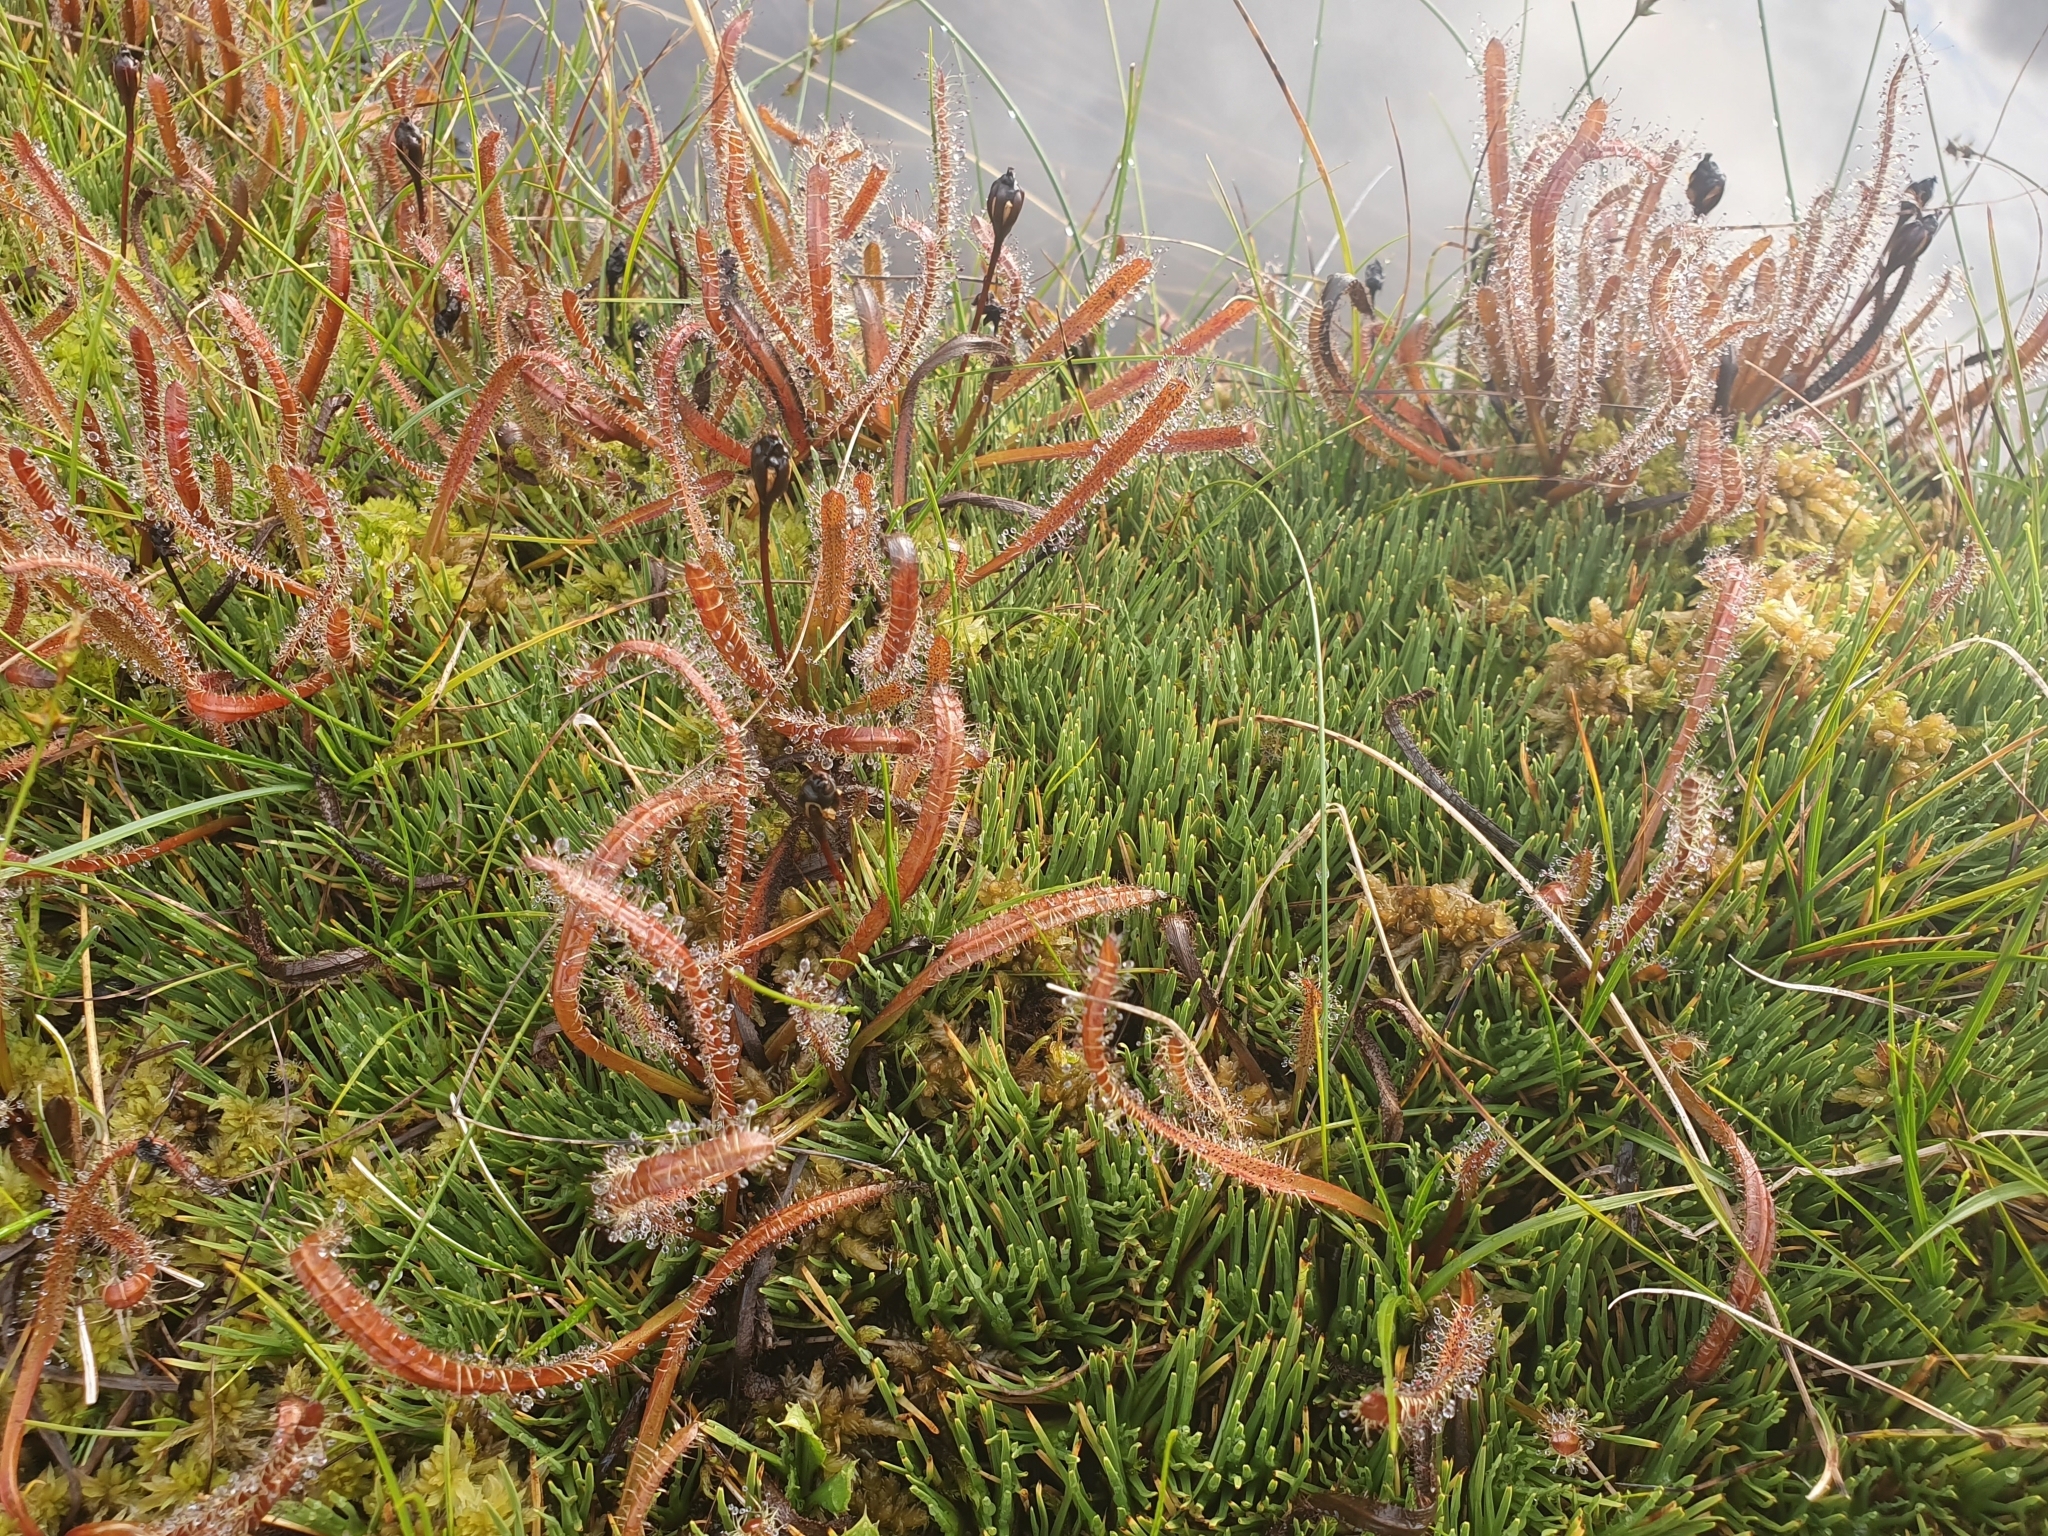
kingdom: Plantae
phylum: Tracheophyta
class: Magnoliopsida
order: Caryophyllales
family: Droseraceae
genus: Drosera
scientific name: Drosera arcturi
